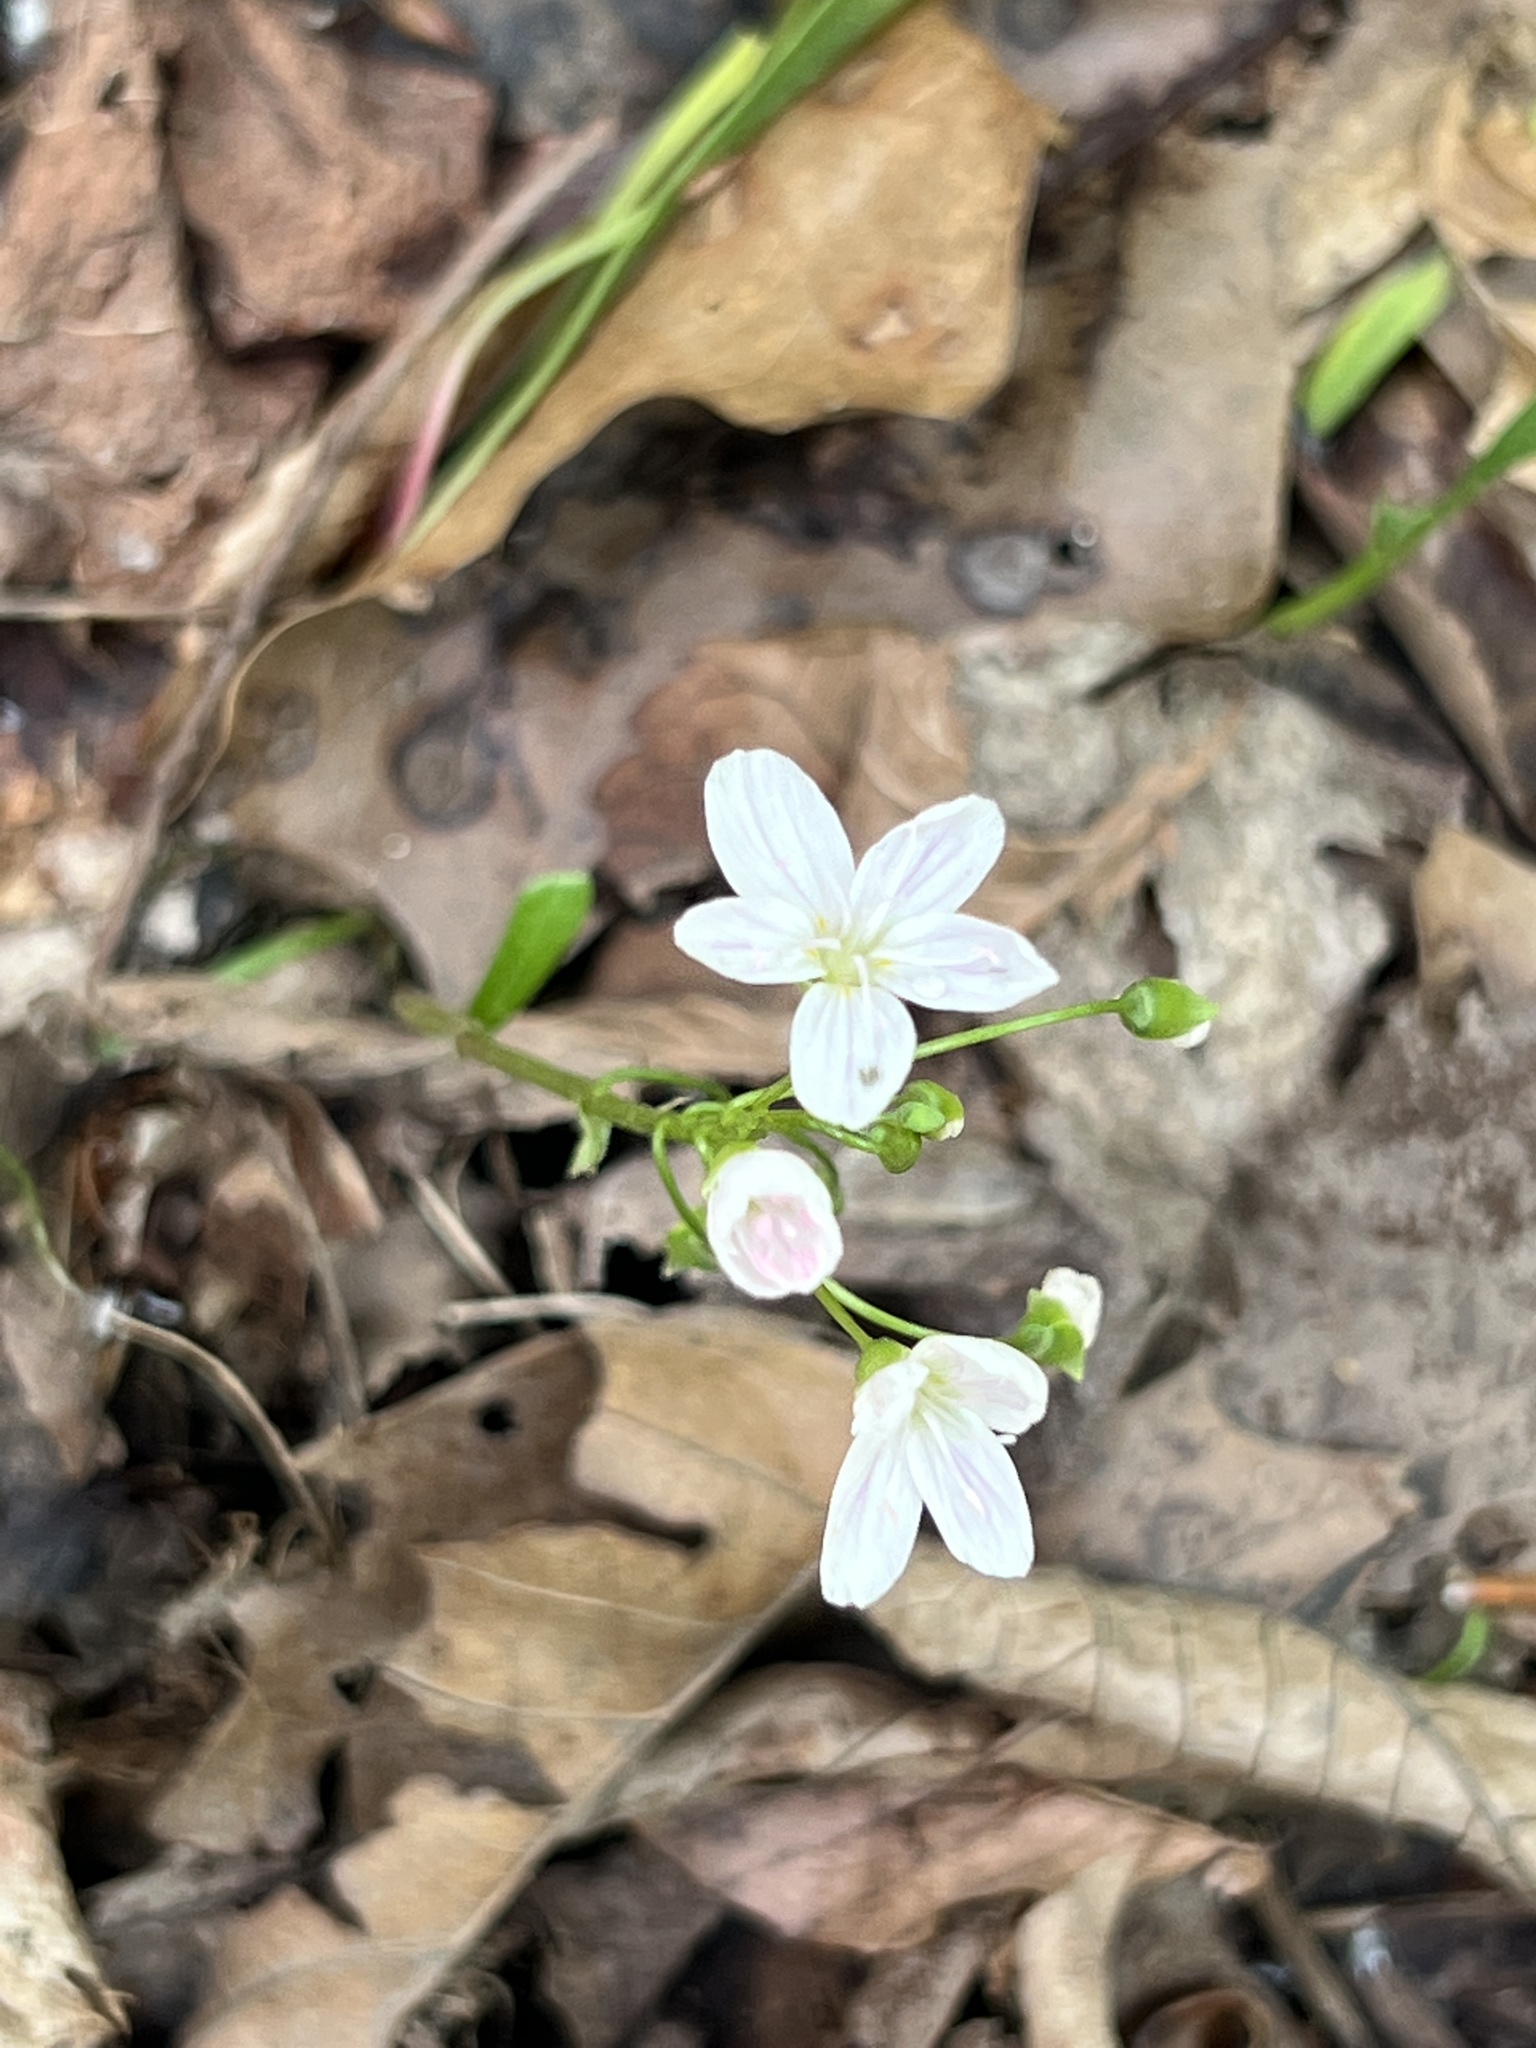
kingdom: Plantae
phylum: Tracheophyta
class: Magnoliopsida
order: Ranunculales
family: Ranunculaceae
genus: Thalictrum
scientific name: Thalictrum thalictroides
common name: Rue-anemone
